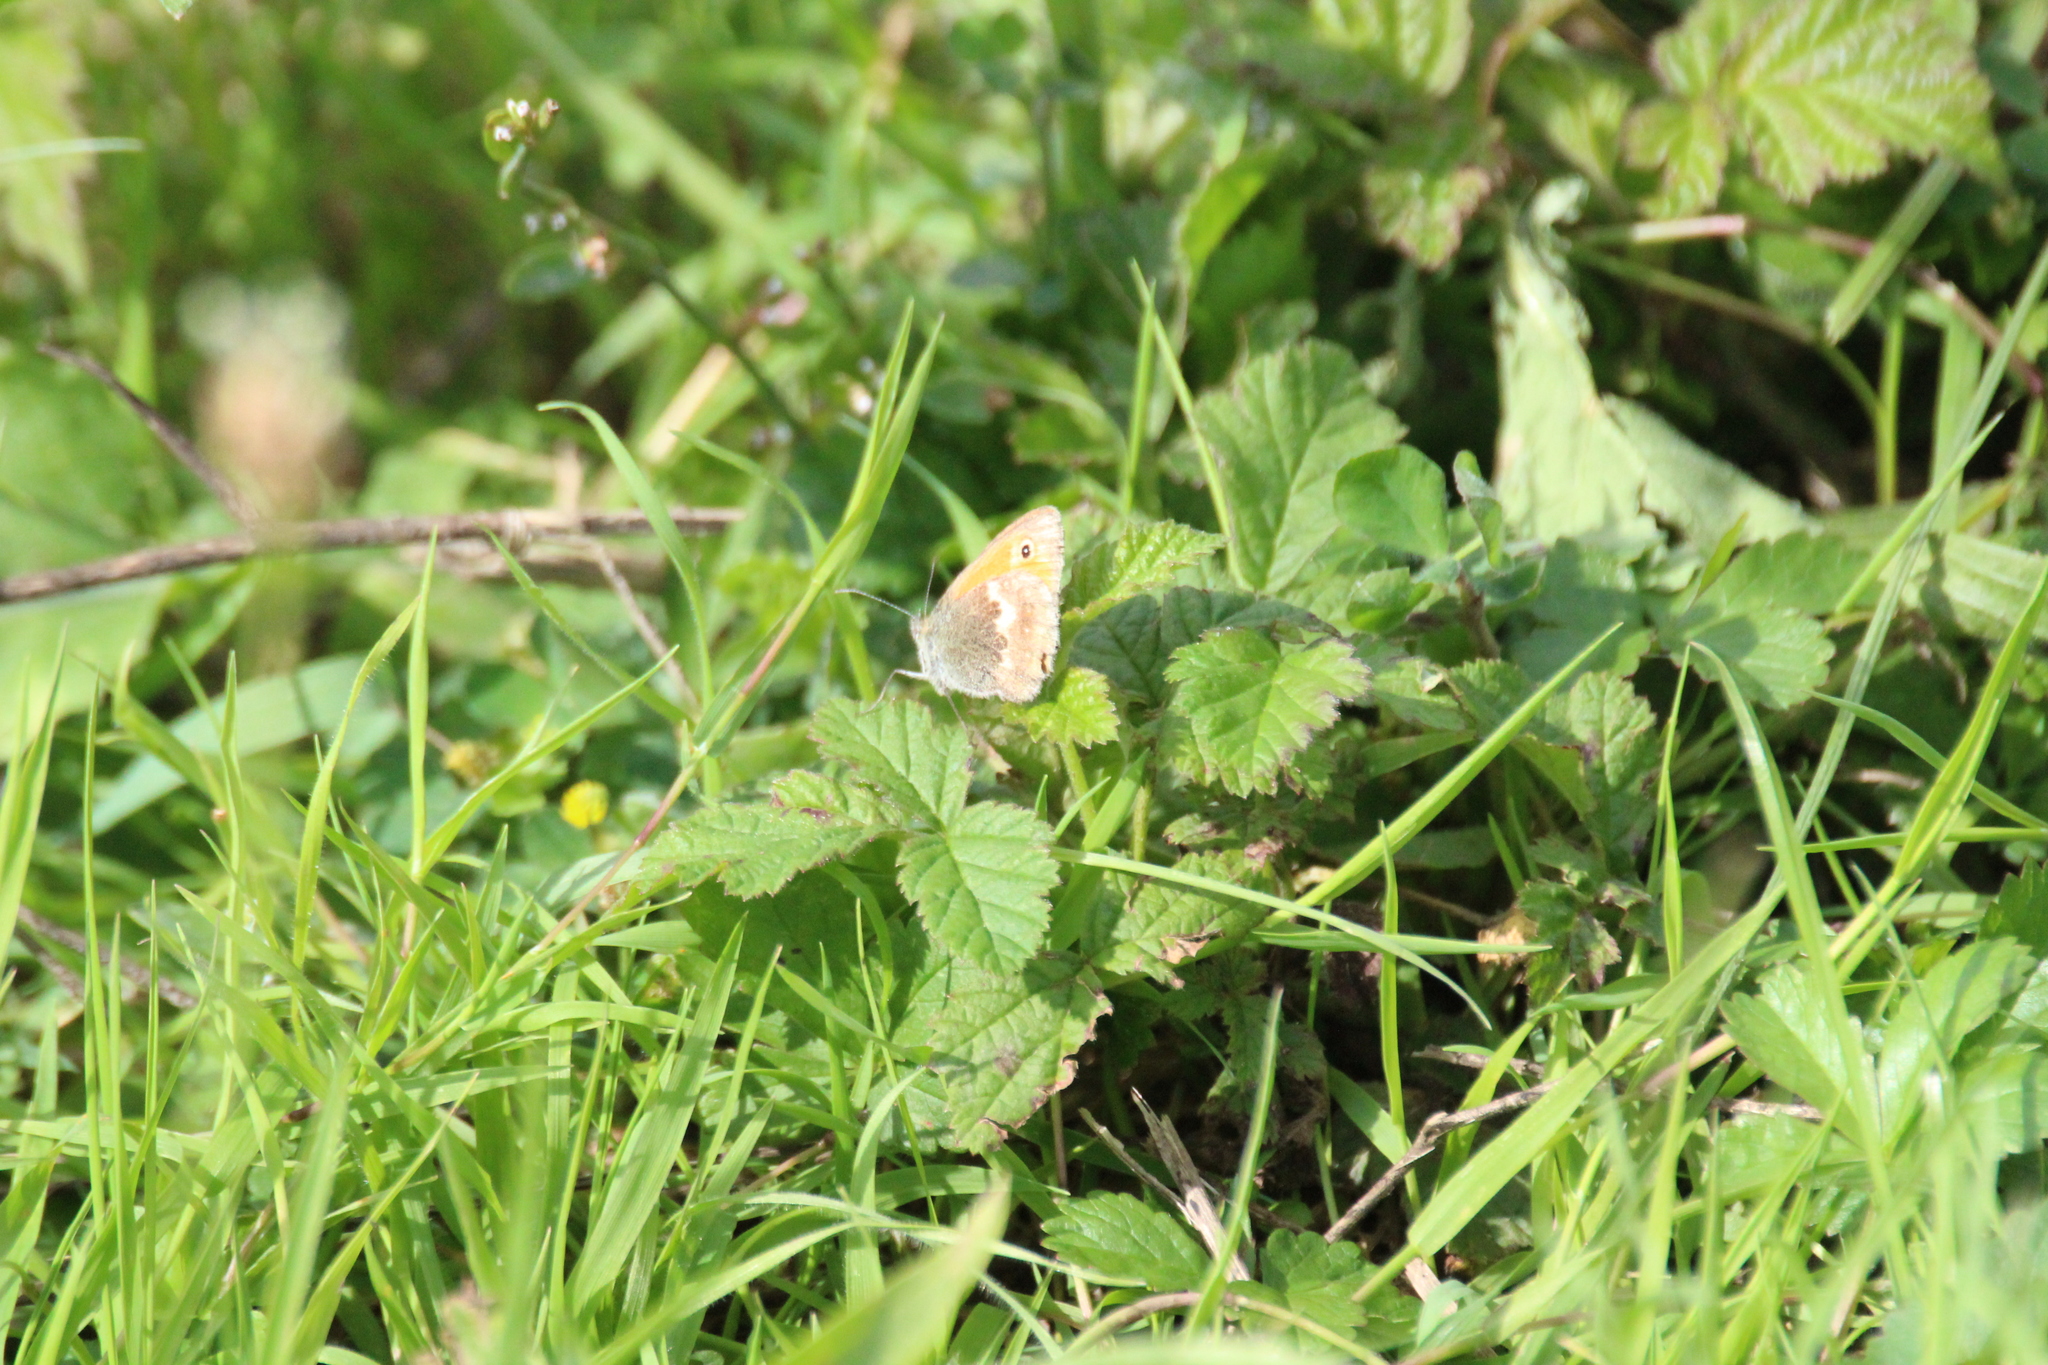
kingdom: Animalia
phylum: Arthropoda
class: Insecta
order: Lepidoptera
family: Nymphalidae
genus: Coenonympha
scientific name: Coenonympha pamphilus
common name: Small heath
